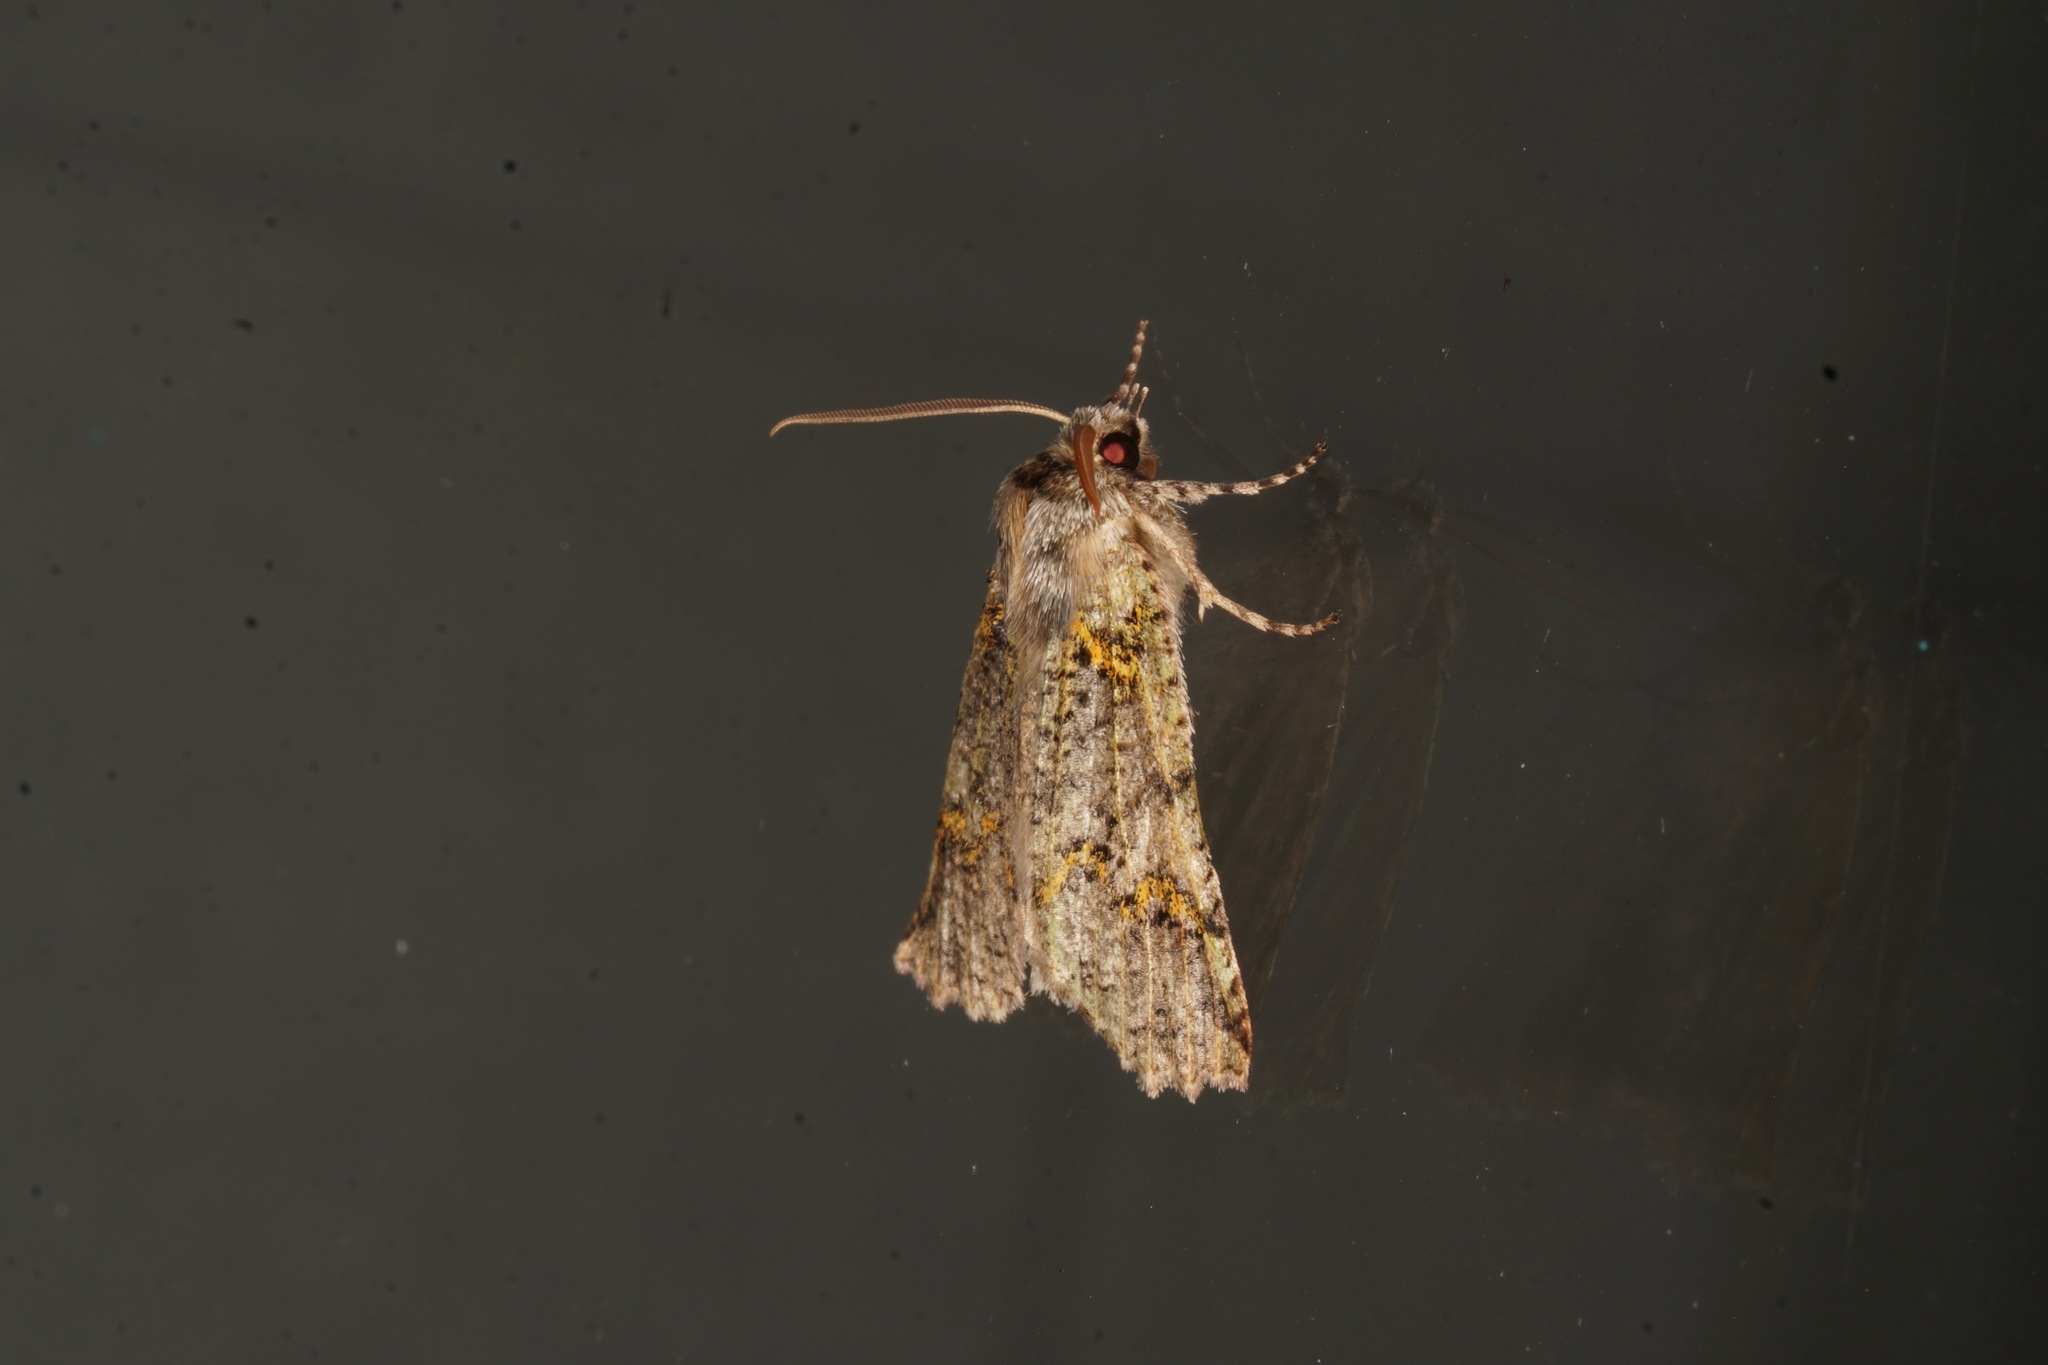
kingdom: Animalia
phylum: Arthropoda
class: Insecta
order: Lepidoptera
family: Geometridae
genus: Declana
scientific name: Declana floccosa
